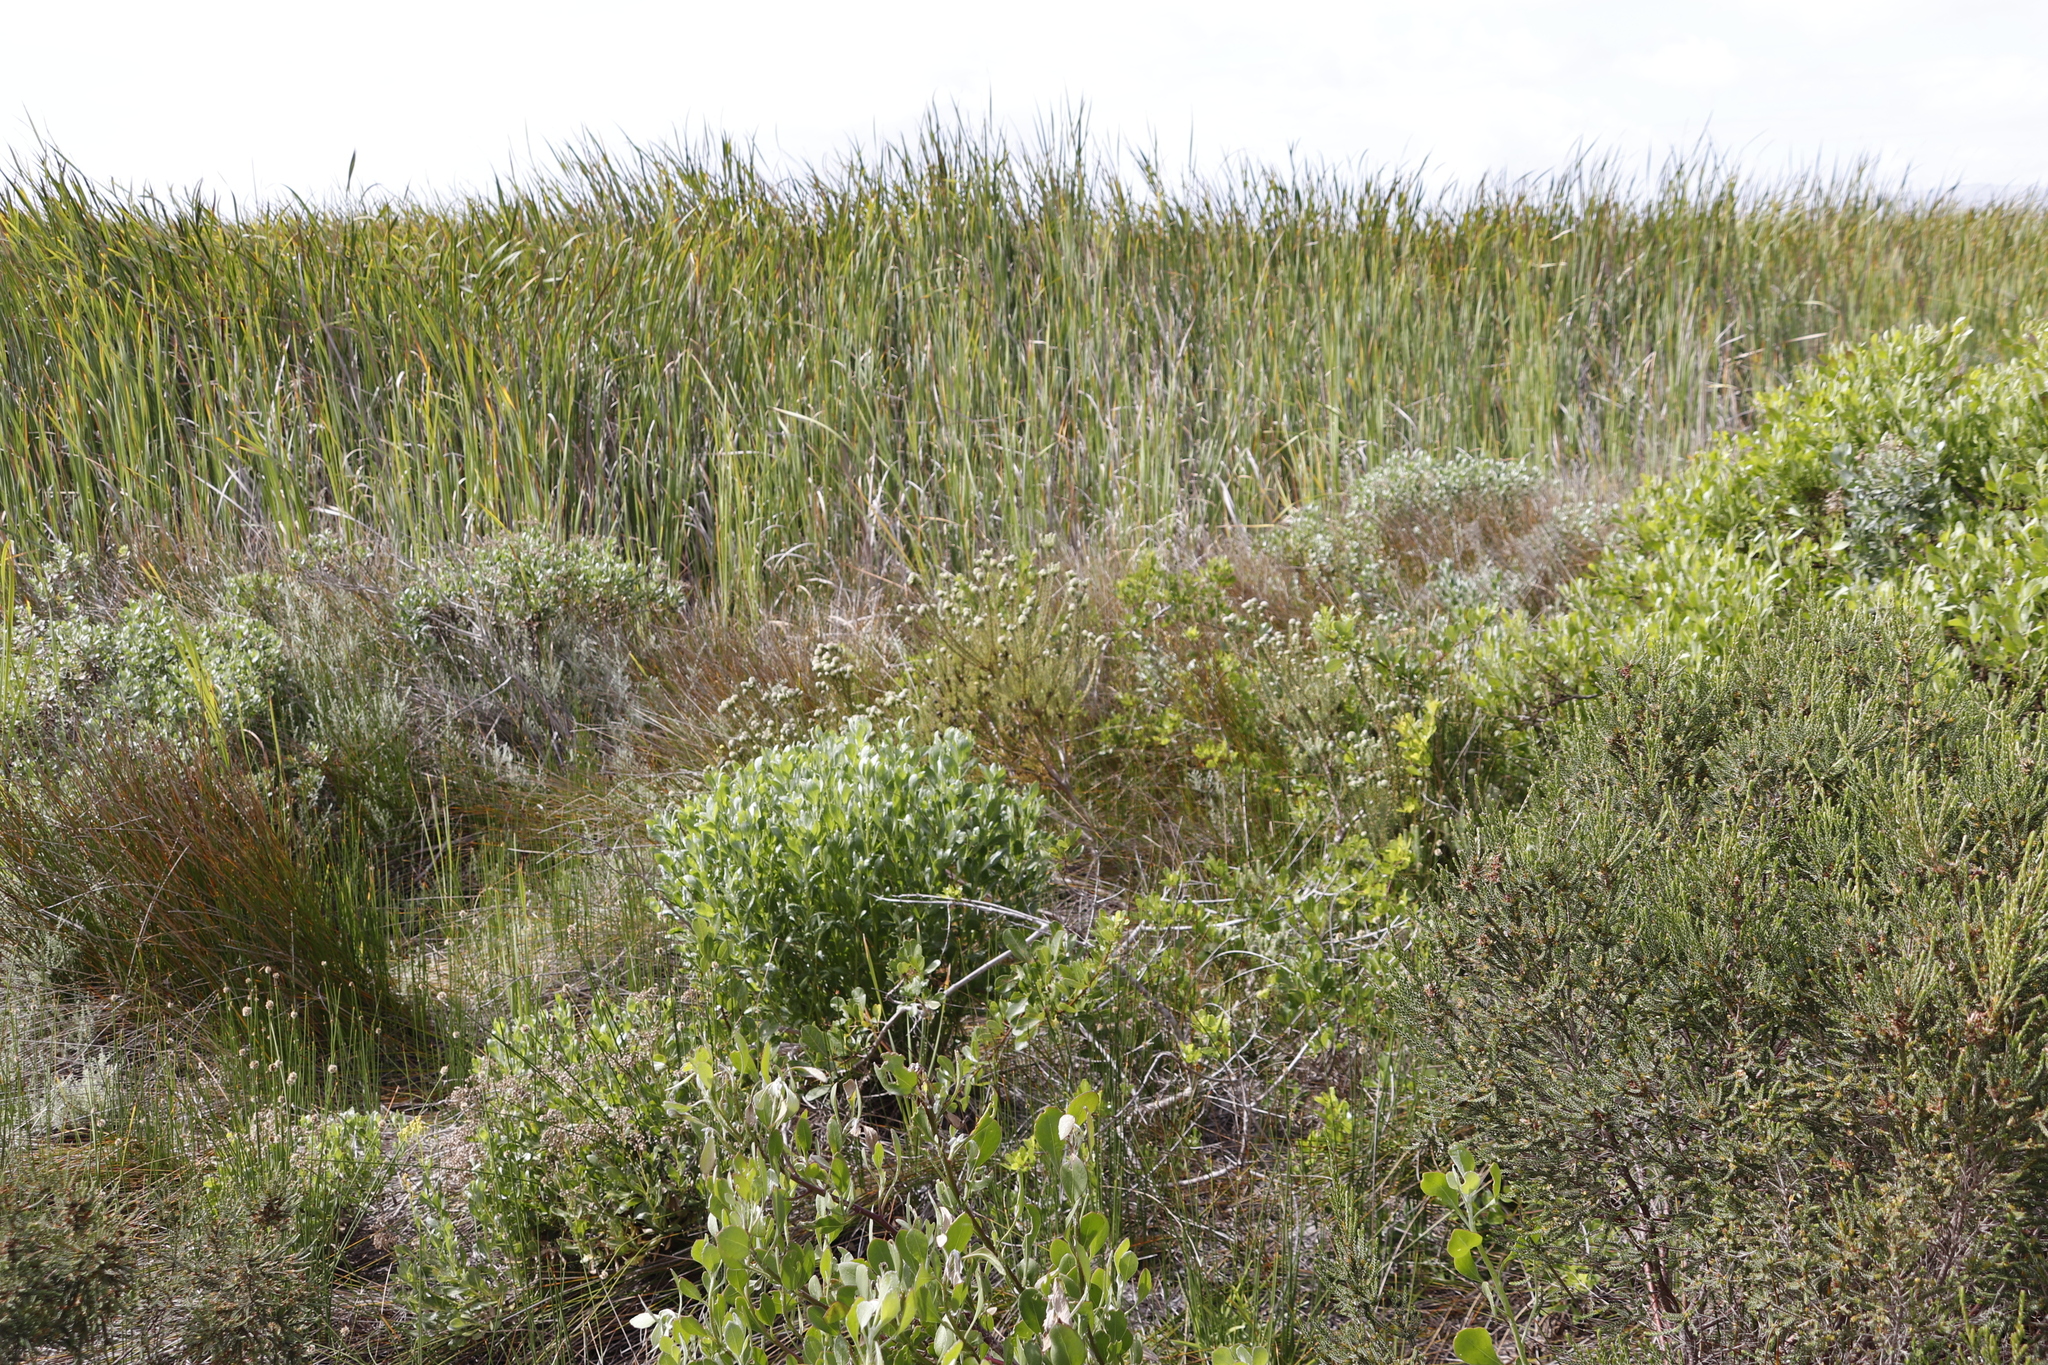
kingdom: Plantae
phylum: Tracheophyta
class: Magnoliopsida
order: Proteales
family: Proteaceae
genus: Leucadendron
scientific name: Leucadendron levisanus
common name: Cape flats conebush
